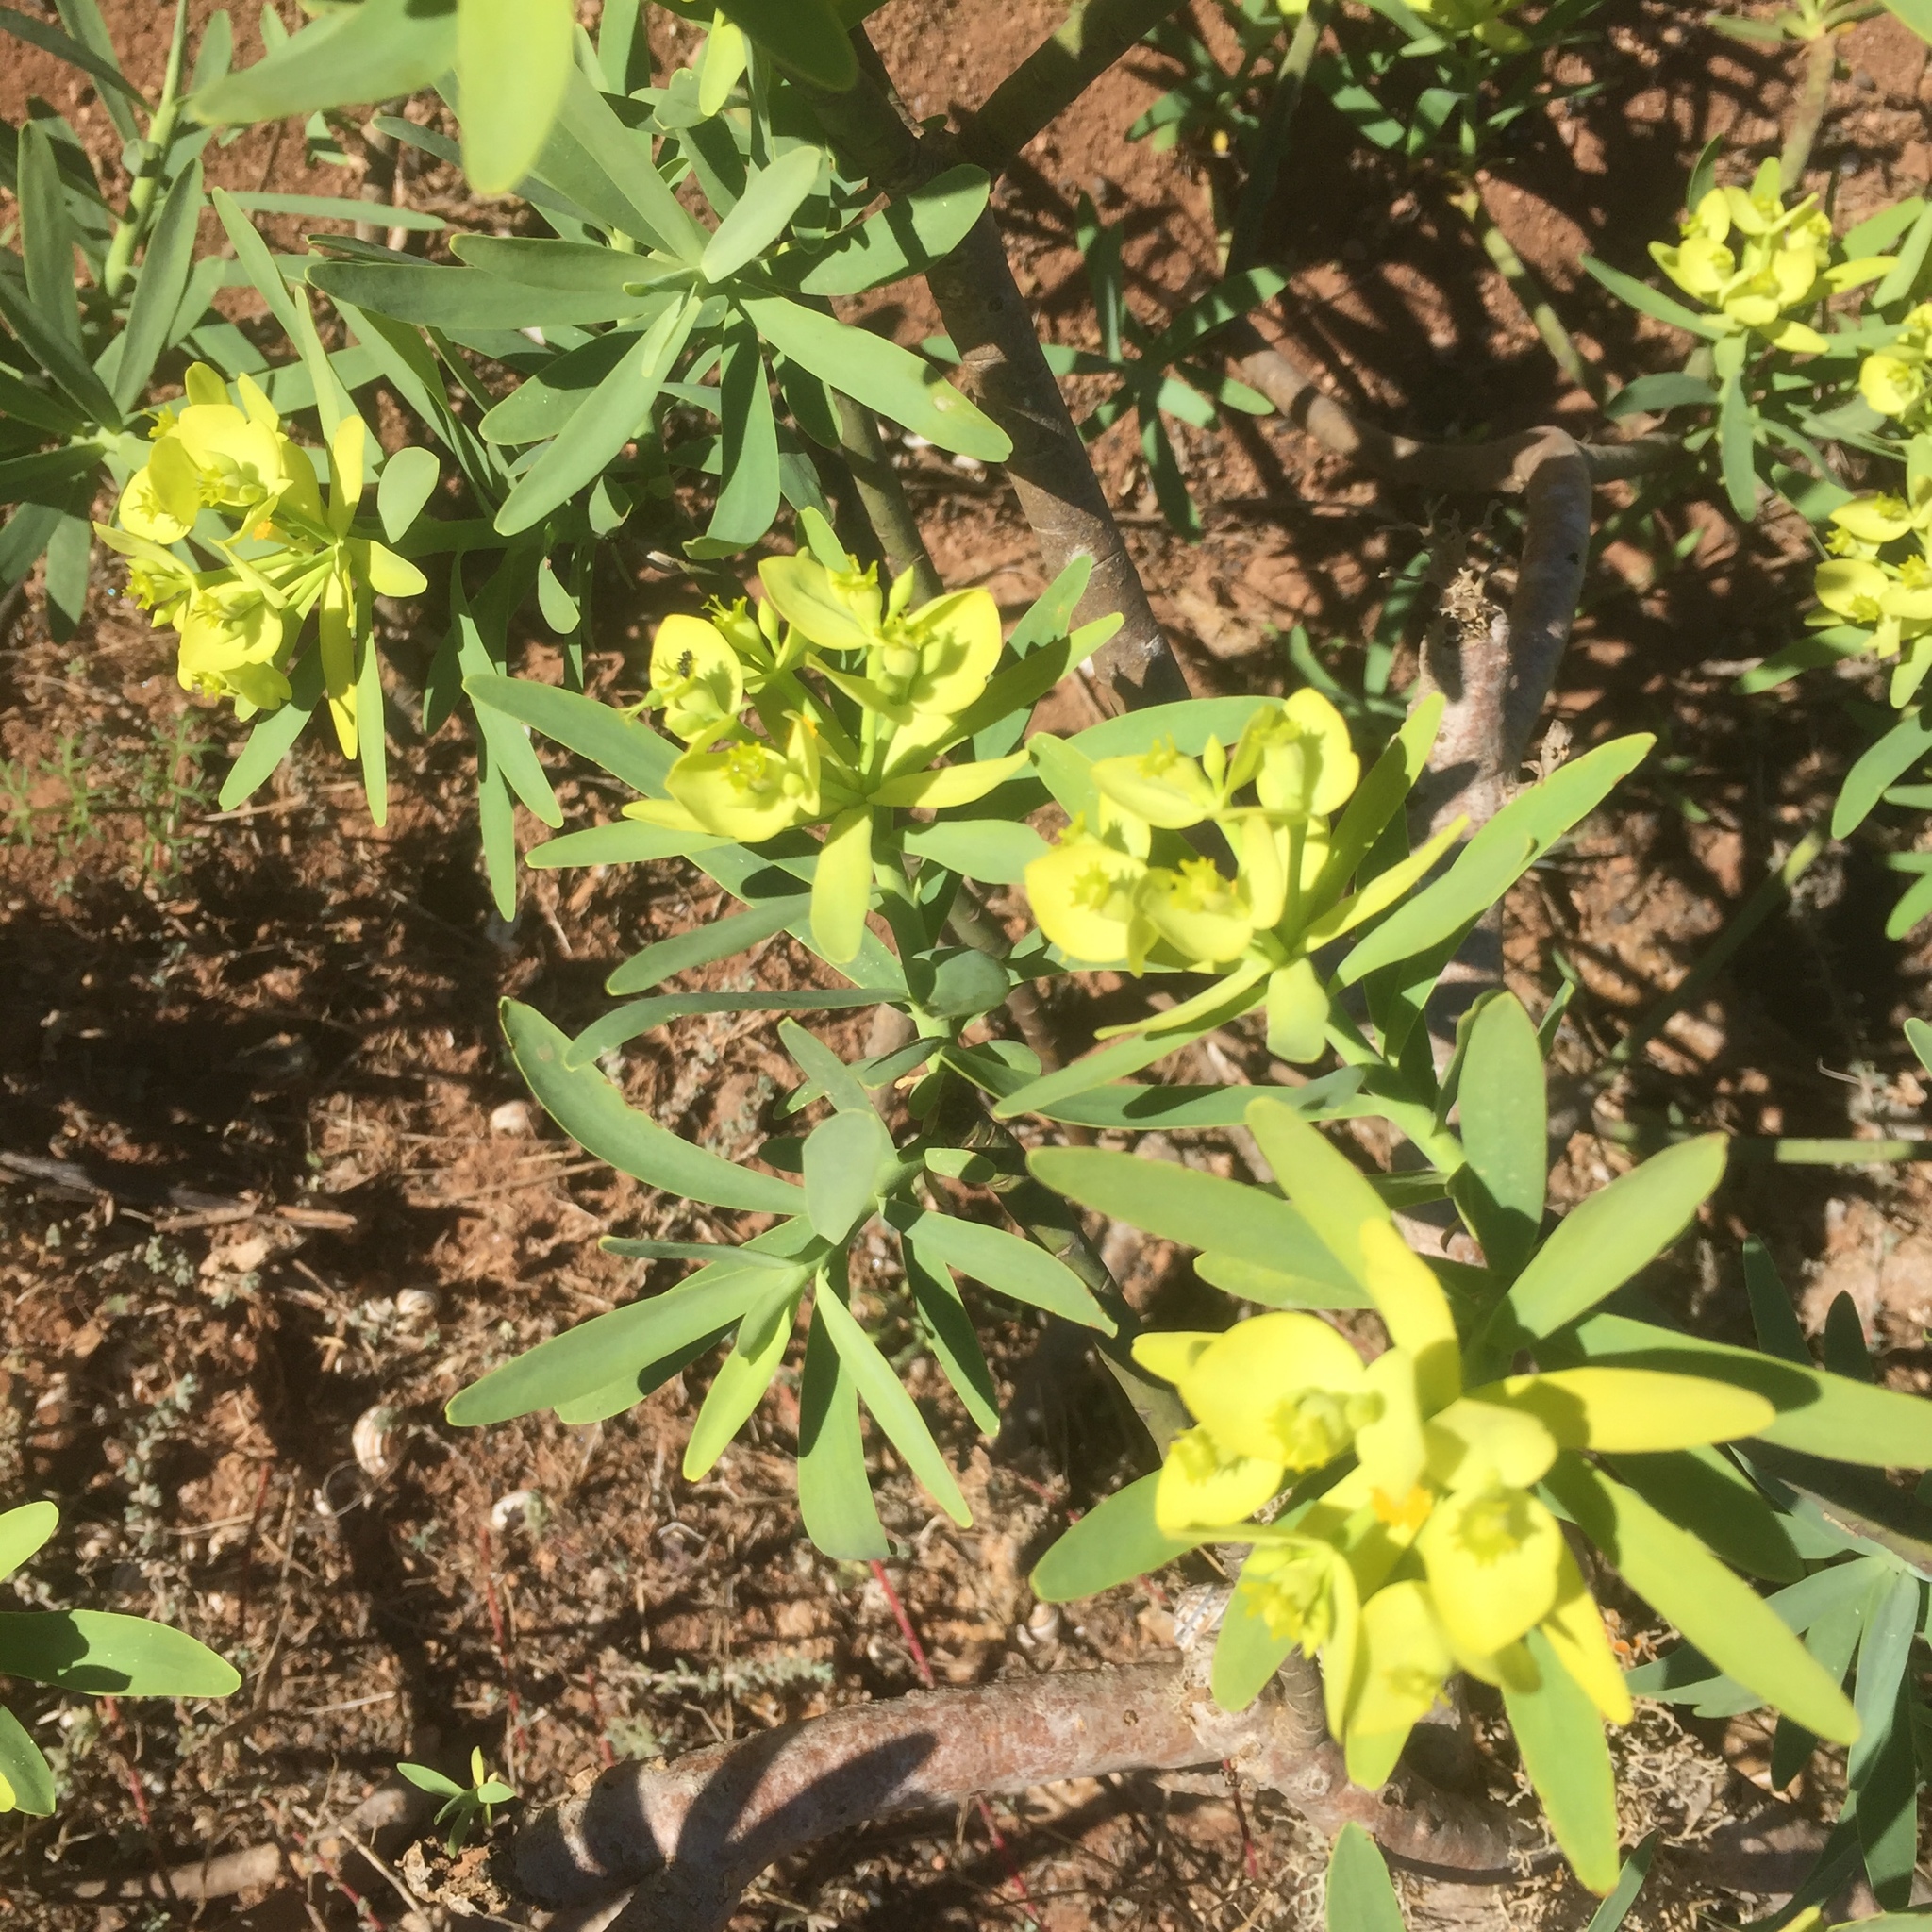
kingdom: Plantae
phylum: Tracheophyta
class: Magnoliopsida
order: Malpighiales
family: Euphorbiaceae
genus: Euphorbia
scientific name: Euphorbia regis-jubae
